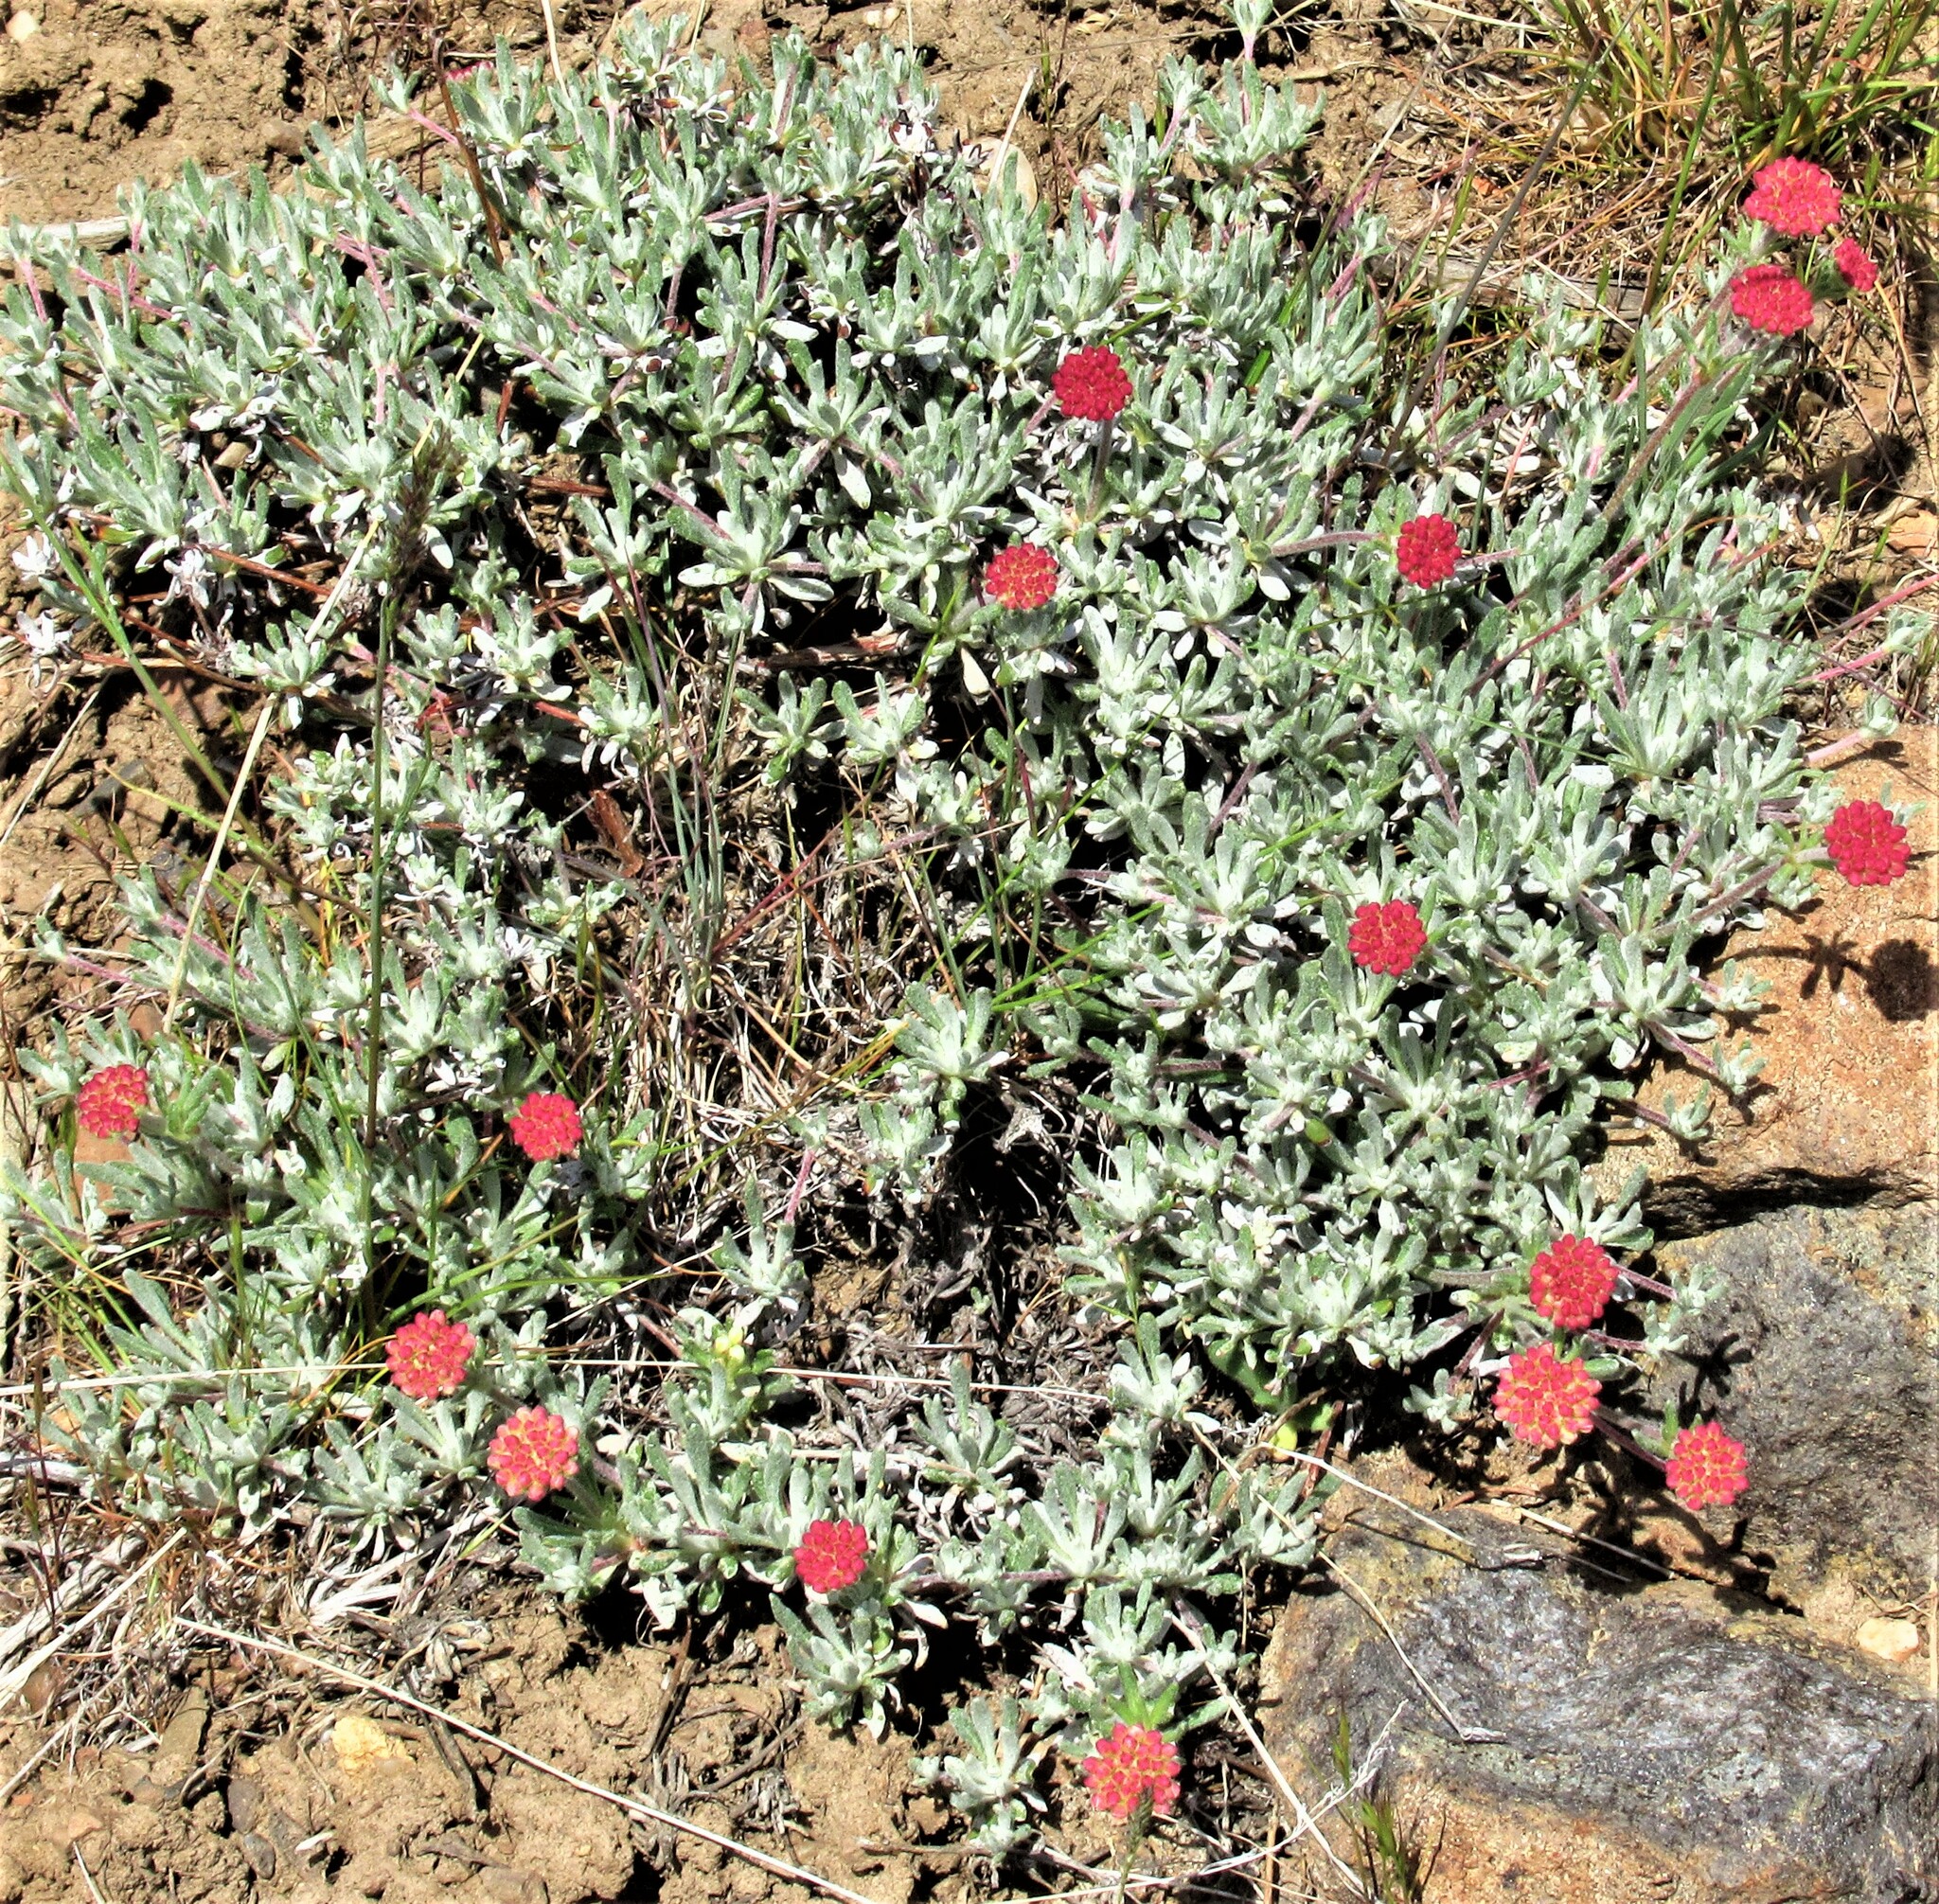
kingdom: Plantae
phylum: Tracheophyta
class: Magnoliopsida
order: Caryophyllales
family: Polygonaceae
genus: Eriogonum
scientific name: Eriogonum douglasii
